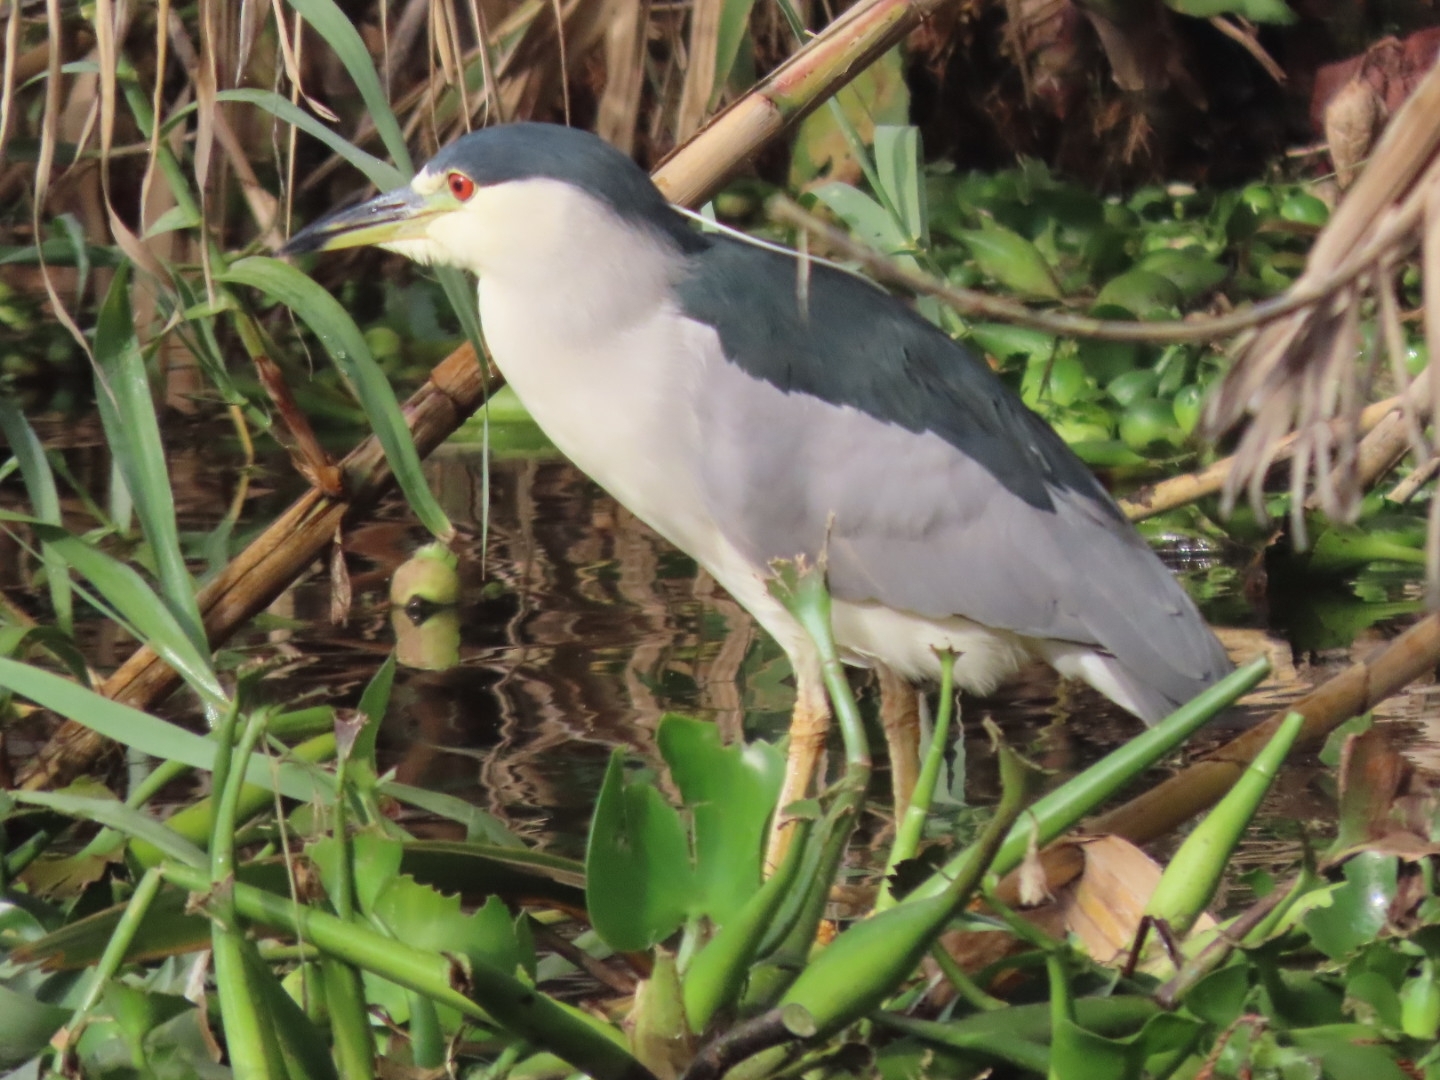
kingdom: Animalia
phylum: Chordata
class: Aves
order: Pelecaniformes
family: Ardeidae
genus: Nycticorax
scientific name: Nycticorax nycticorax
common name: Black-crowned night heron
